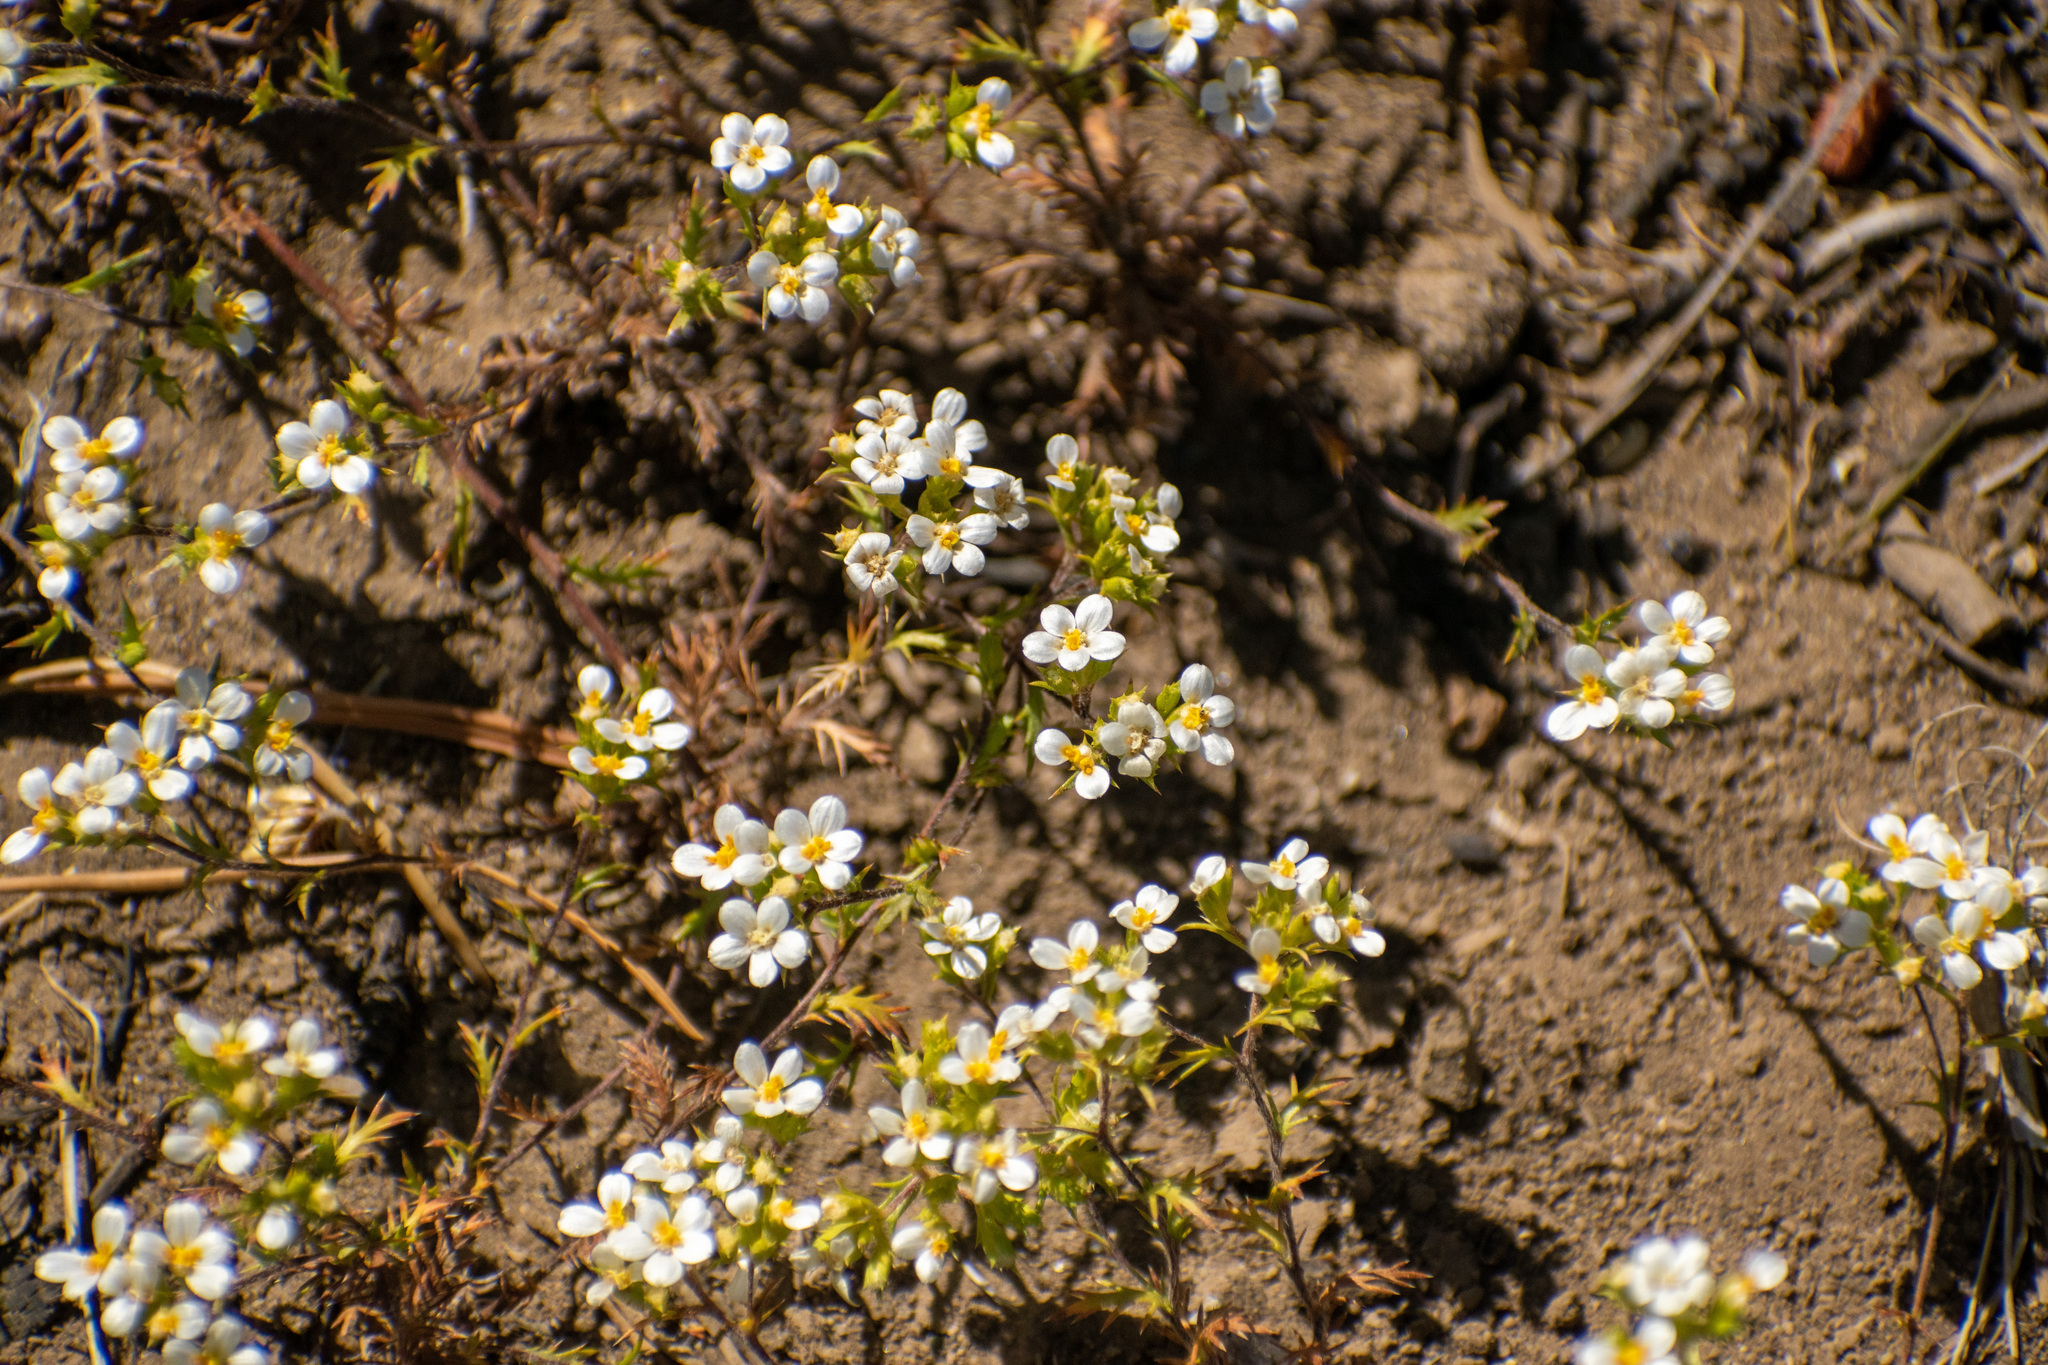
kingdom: Plantae
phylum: Tracheophyta
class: Magnoliopsida
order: Asterales
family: Asteraceae
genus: Triptilion
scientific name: Triptilion achilleae
